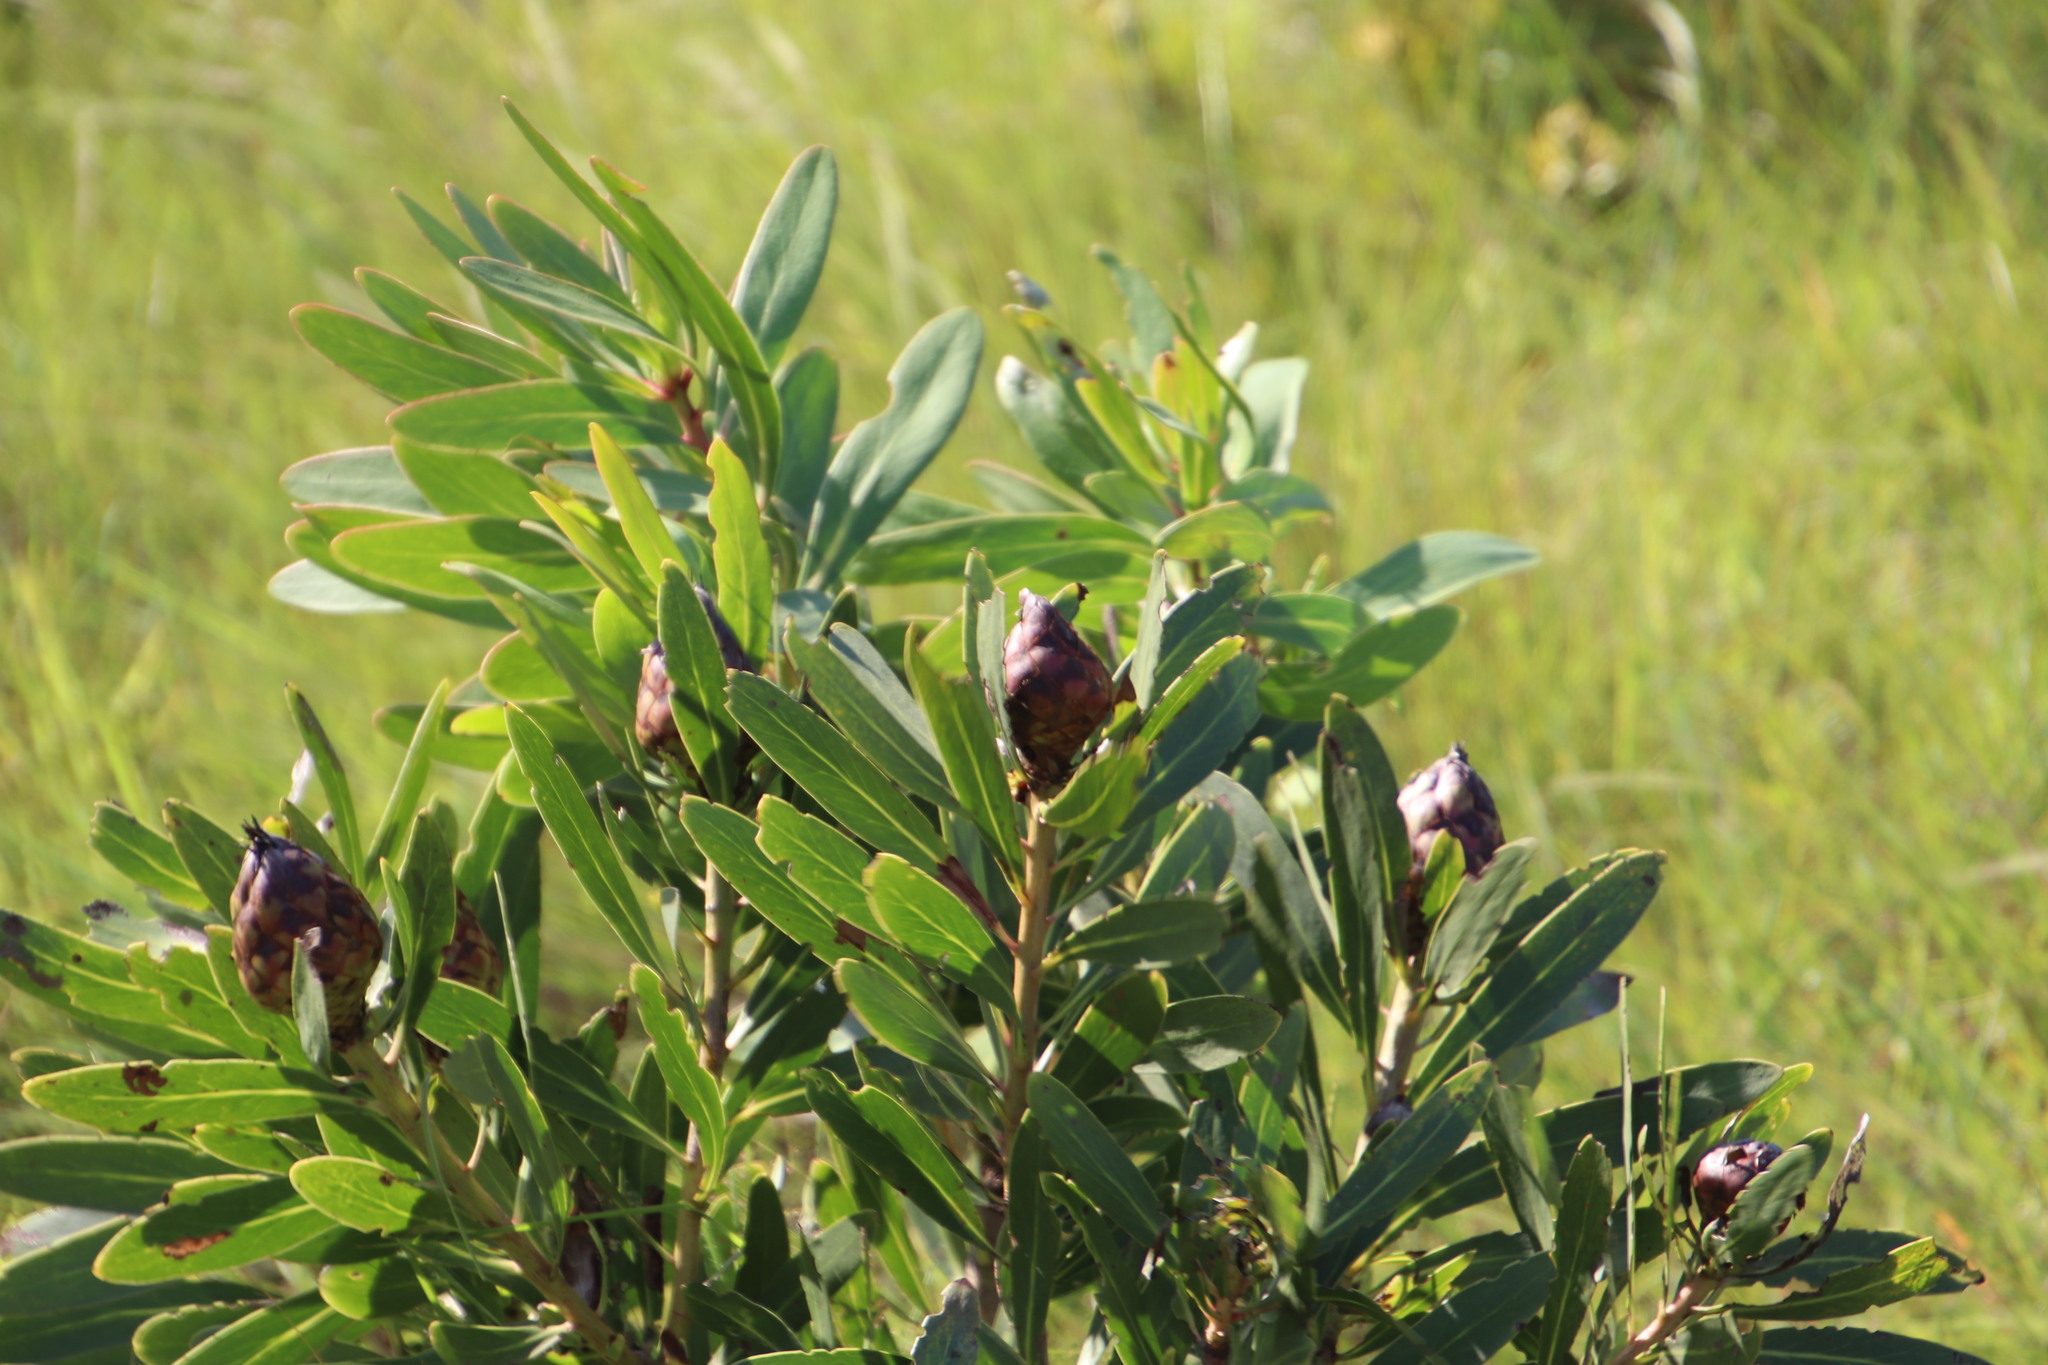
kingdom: Plantae
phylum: Tracheophyta
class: Magnoliopsida
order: Proteales
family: Proteaceae
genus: Protea
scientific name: Protea
